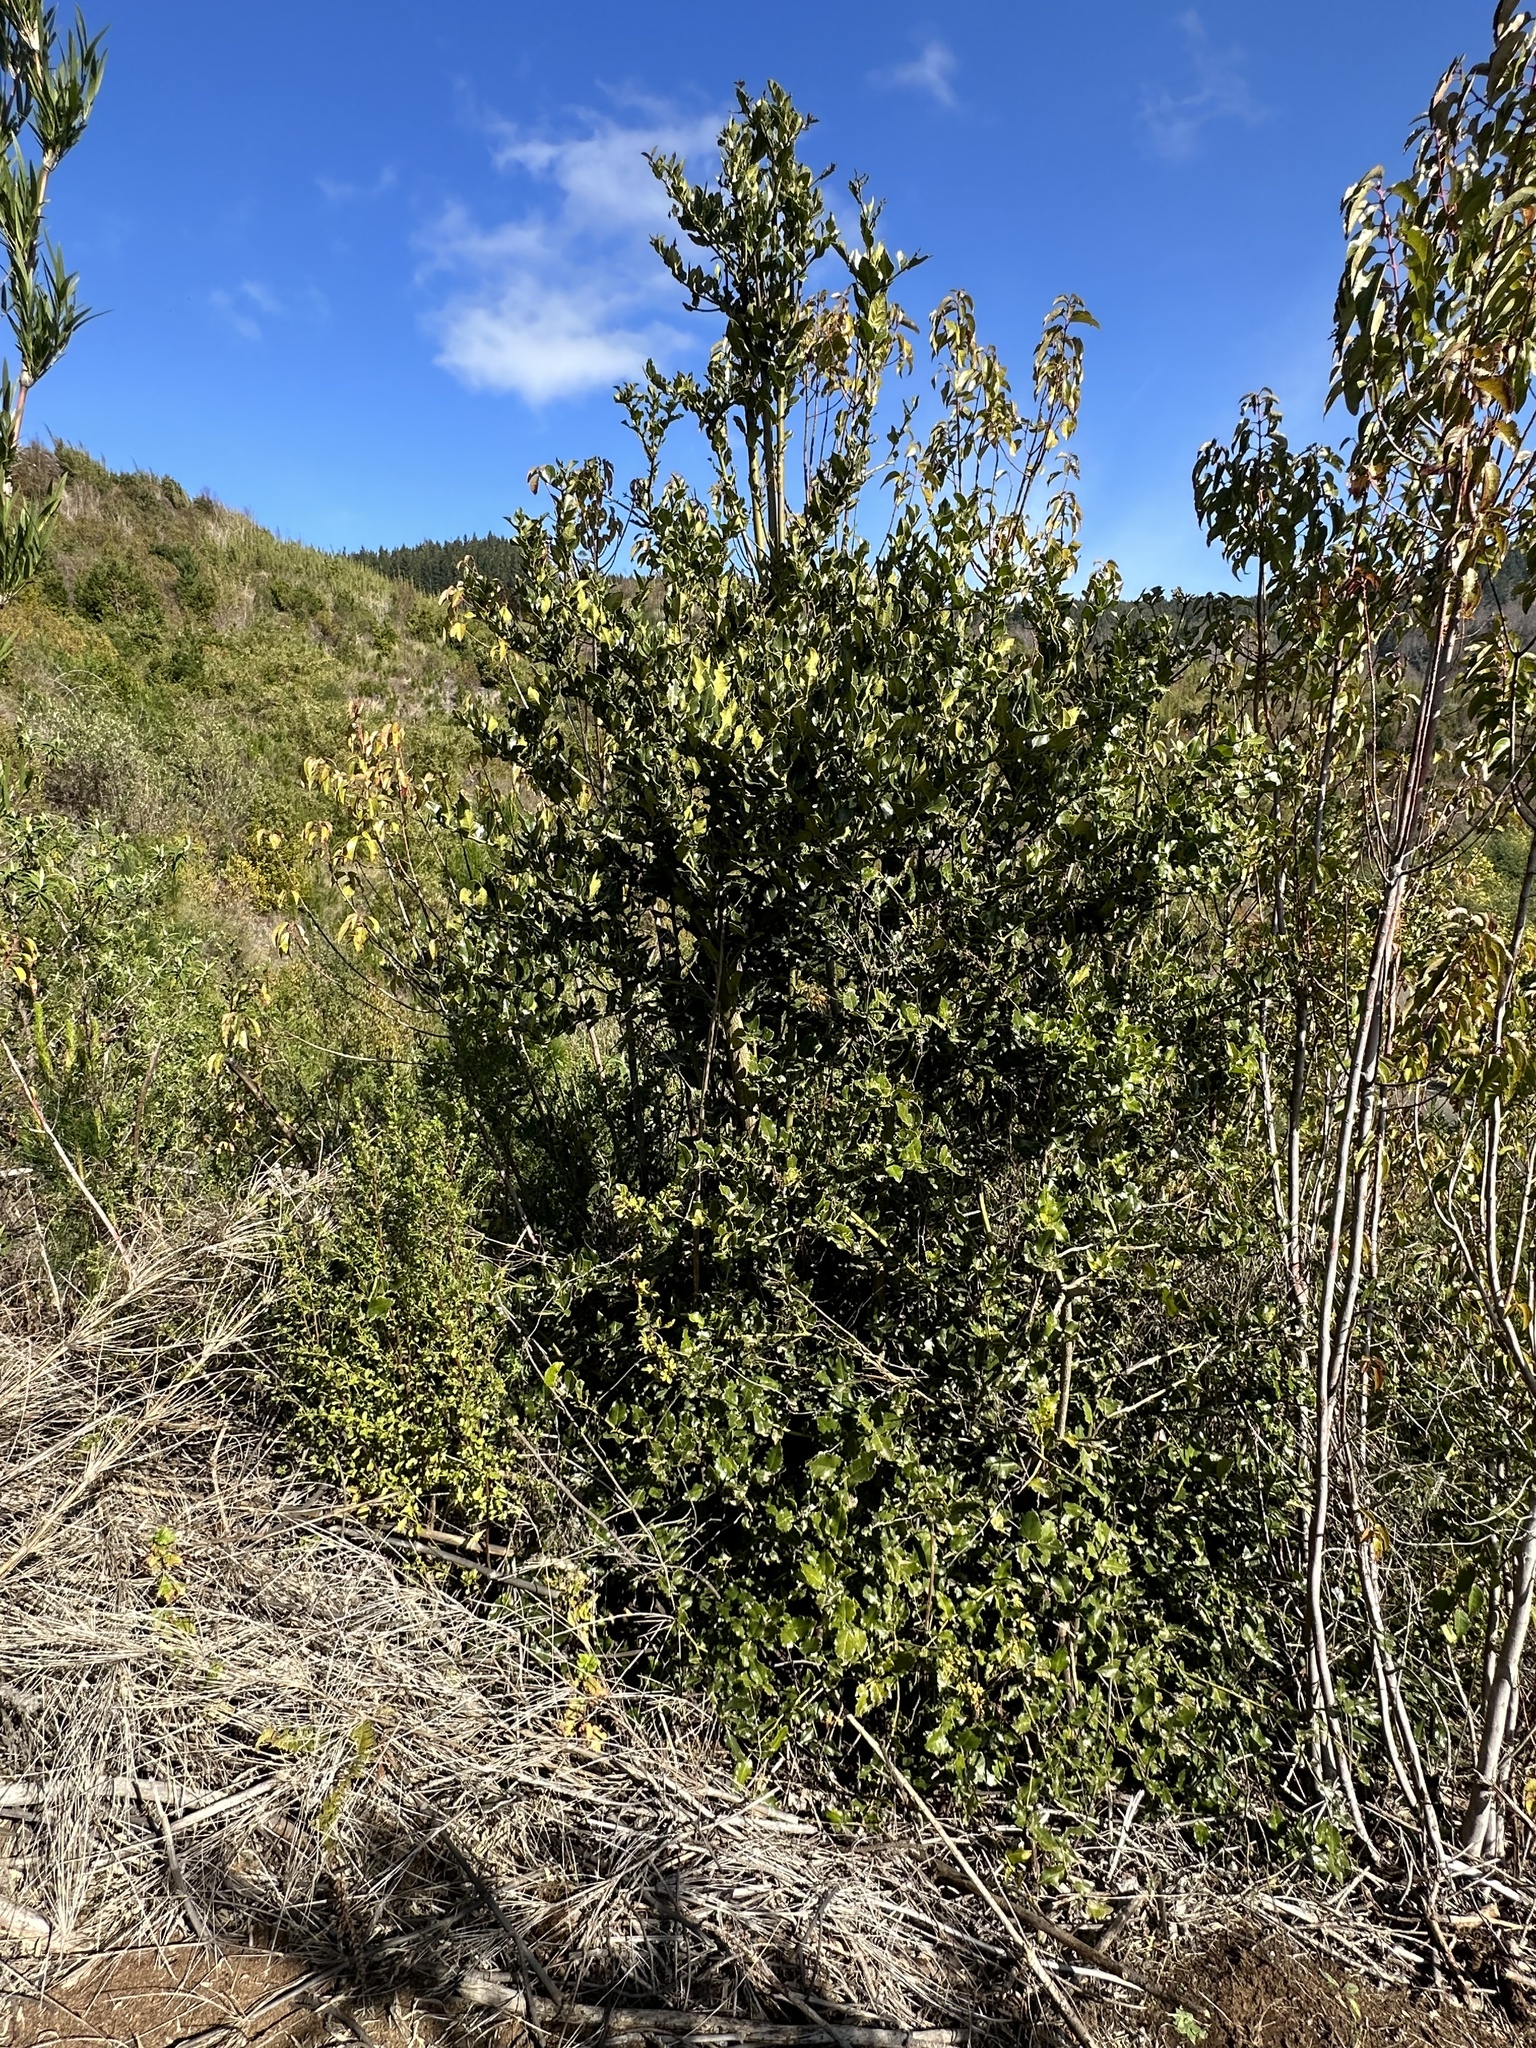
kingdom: Plantae
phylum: Tracheophyta
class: Magnoliopsida
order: Cardiopteridales
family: Cardiopteridaceae
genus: Citronella
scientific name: Citronella mucronata
